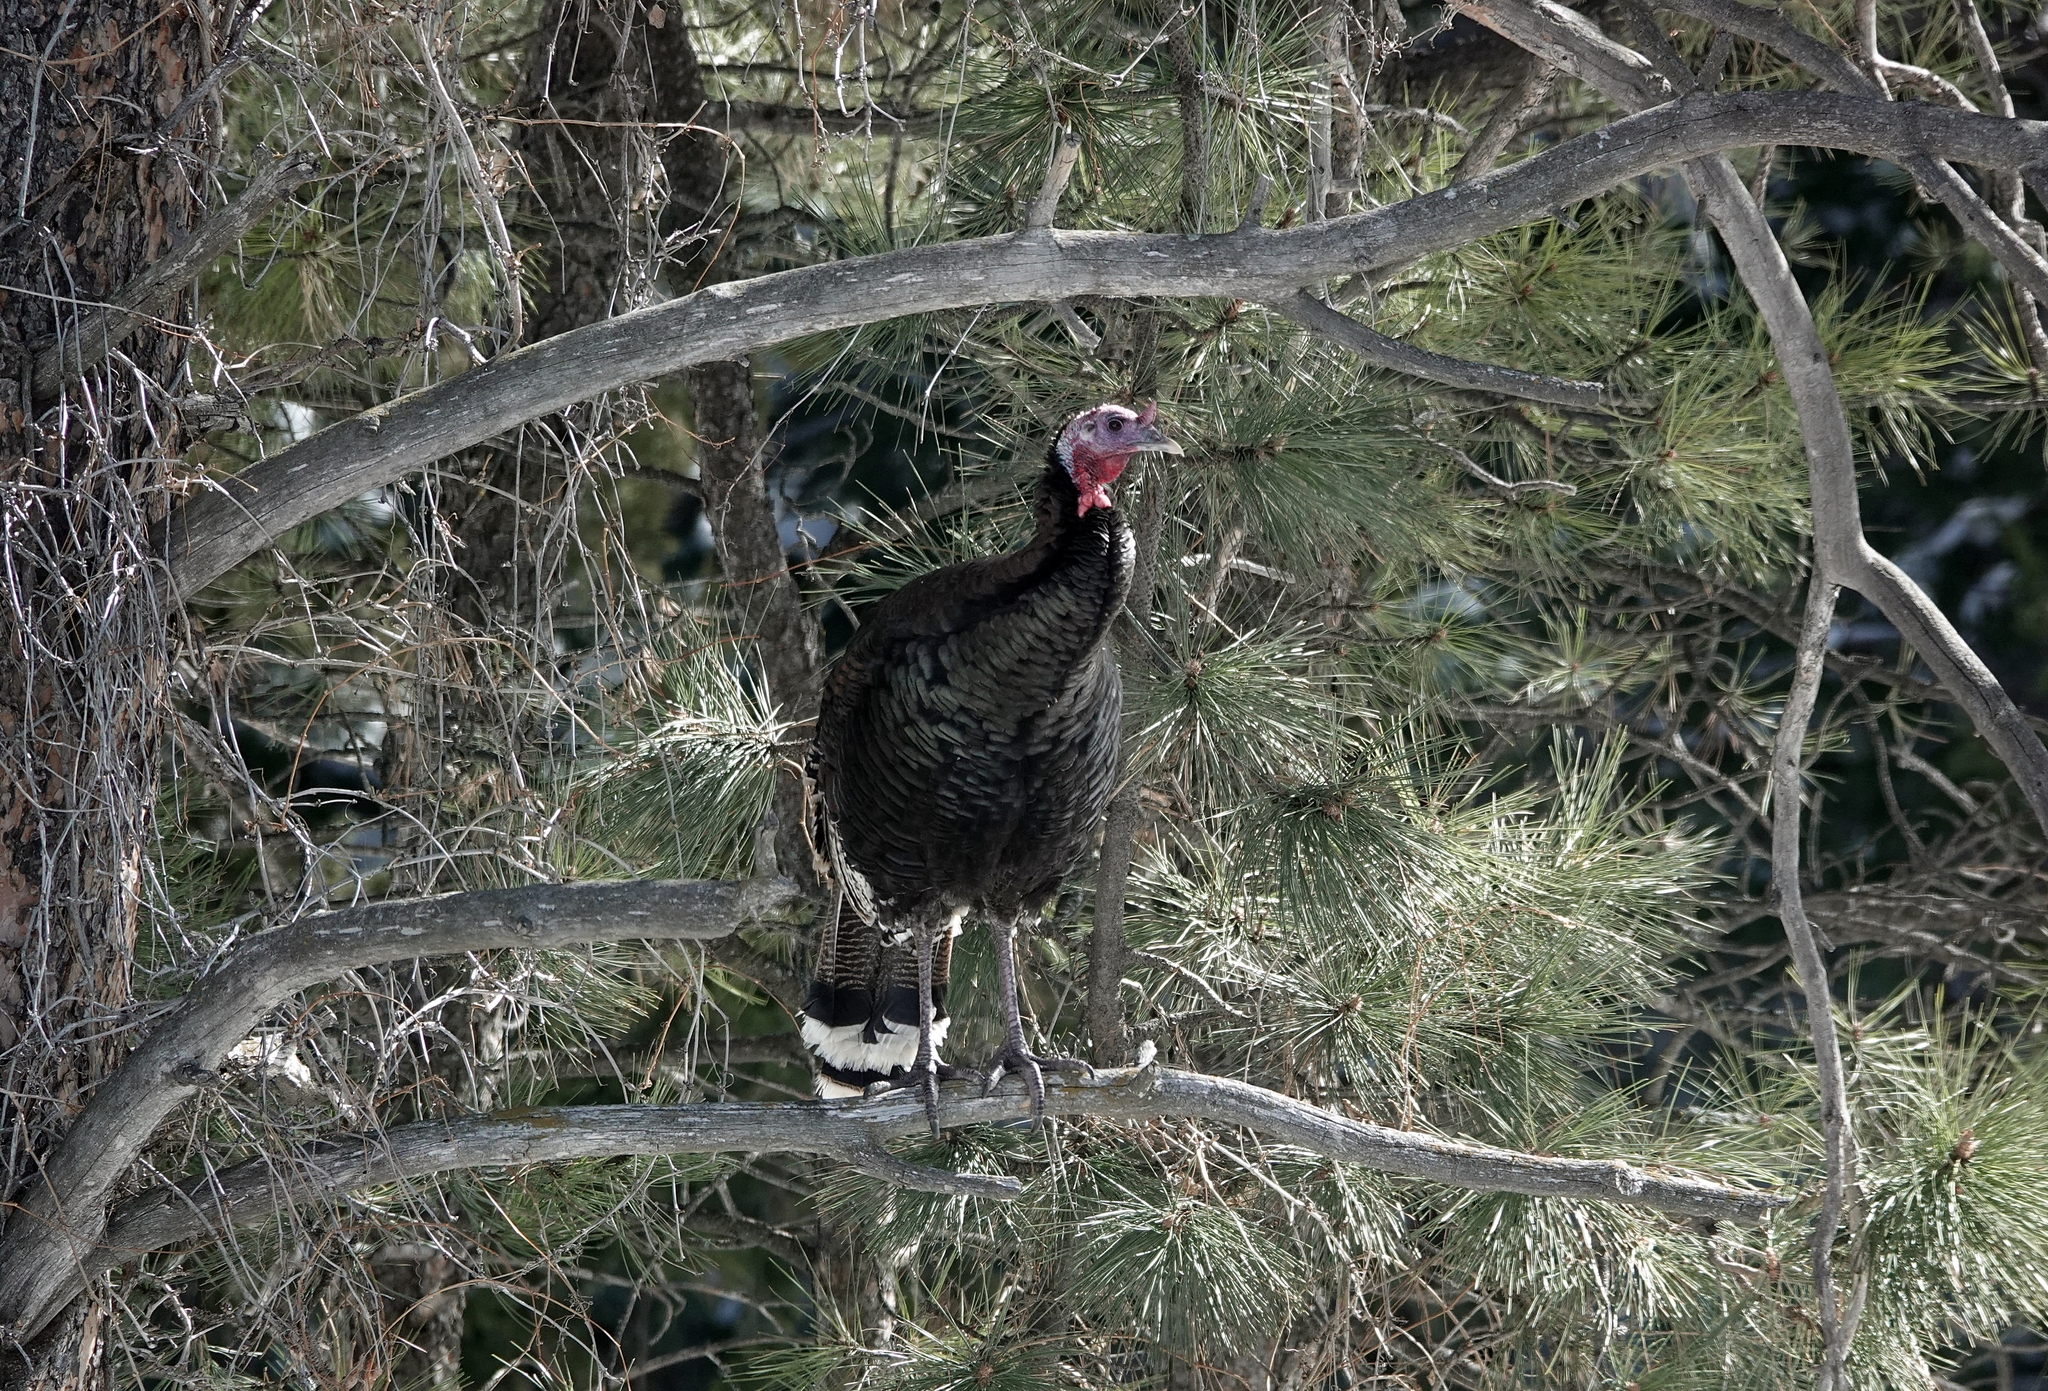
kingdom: Animalia
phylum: Chordata
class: Aves
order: Galliformes
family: Phasianidae
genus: Meleagris
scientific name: Meleagris gallopavo
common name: Wild turkey
